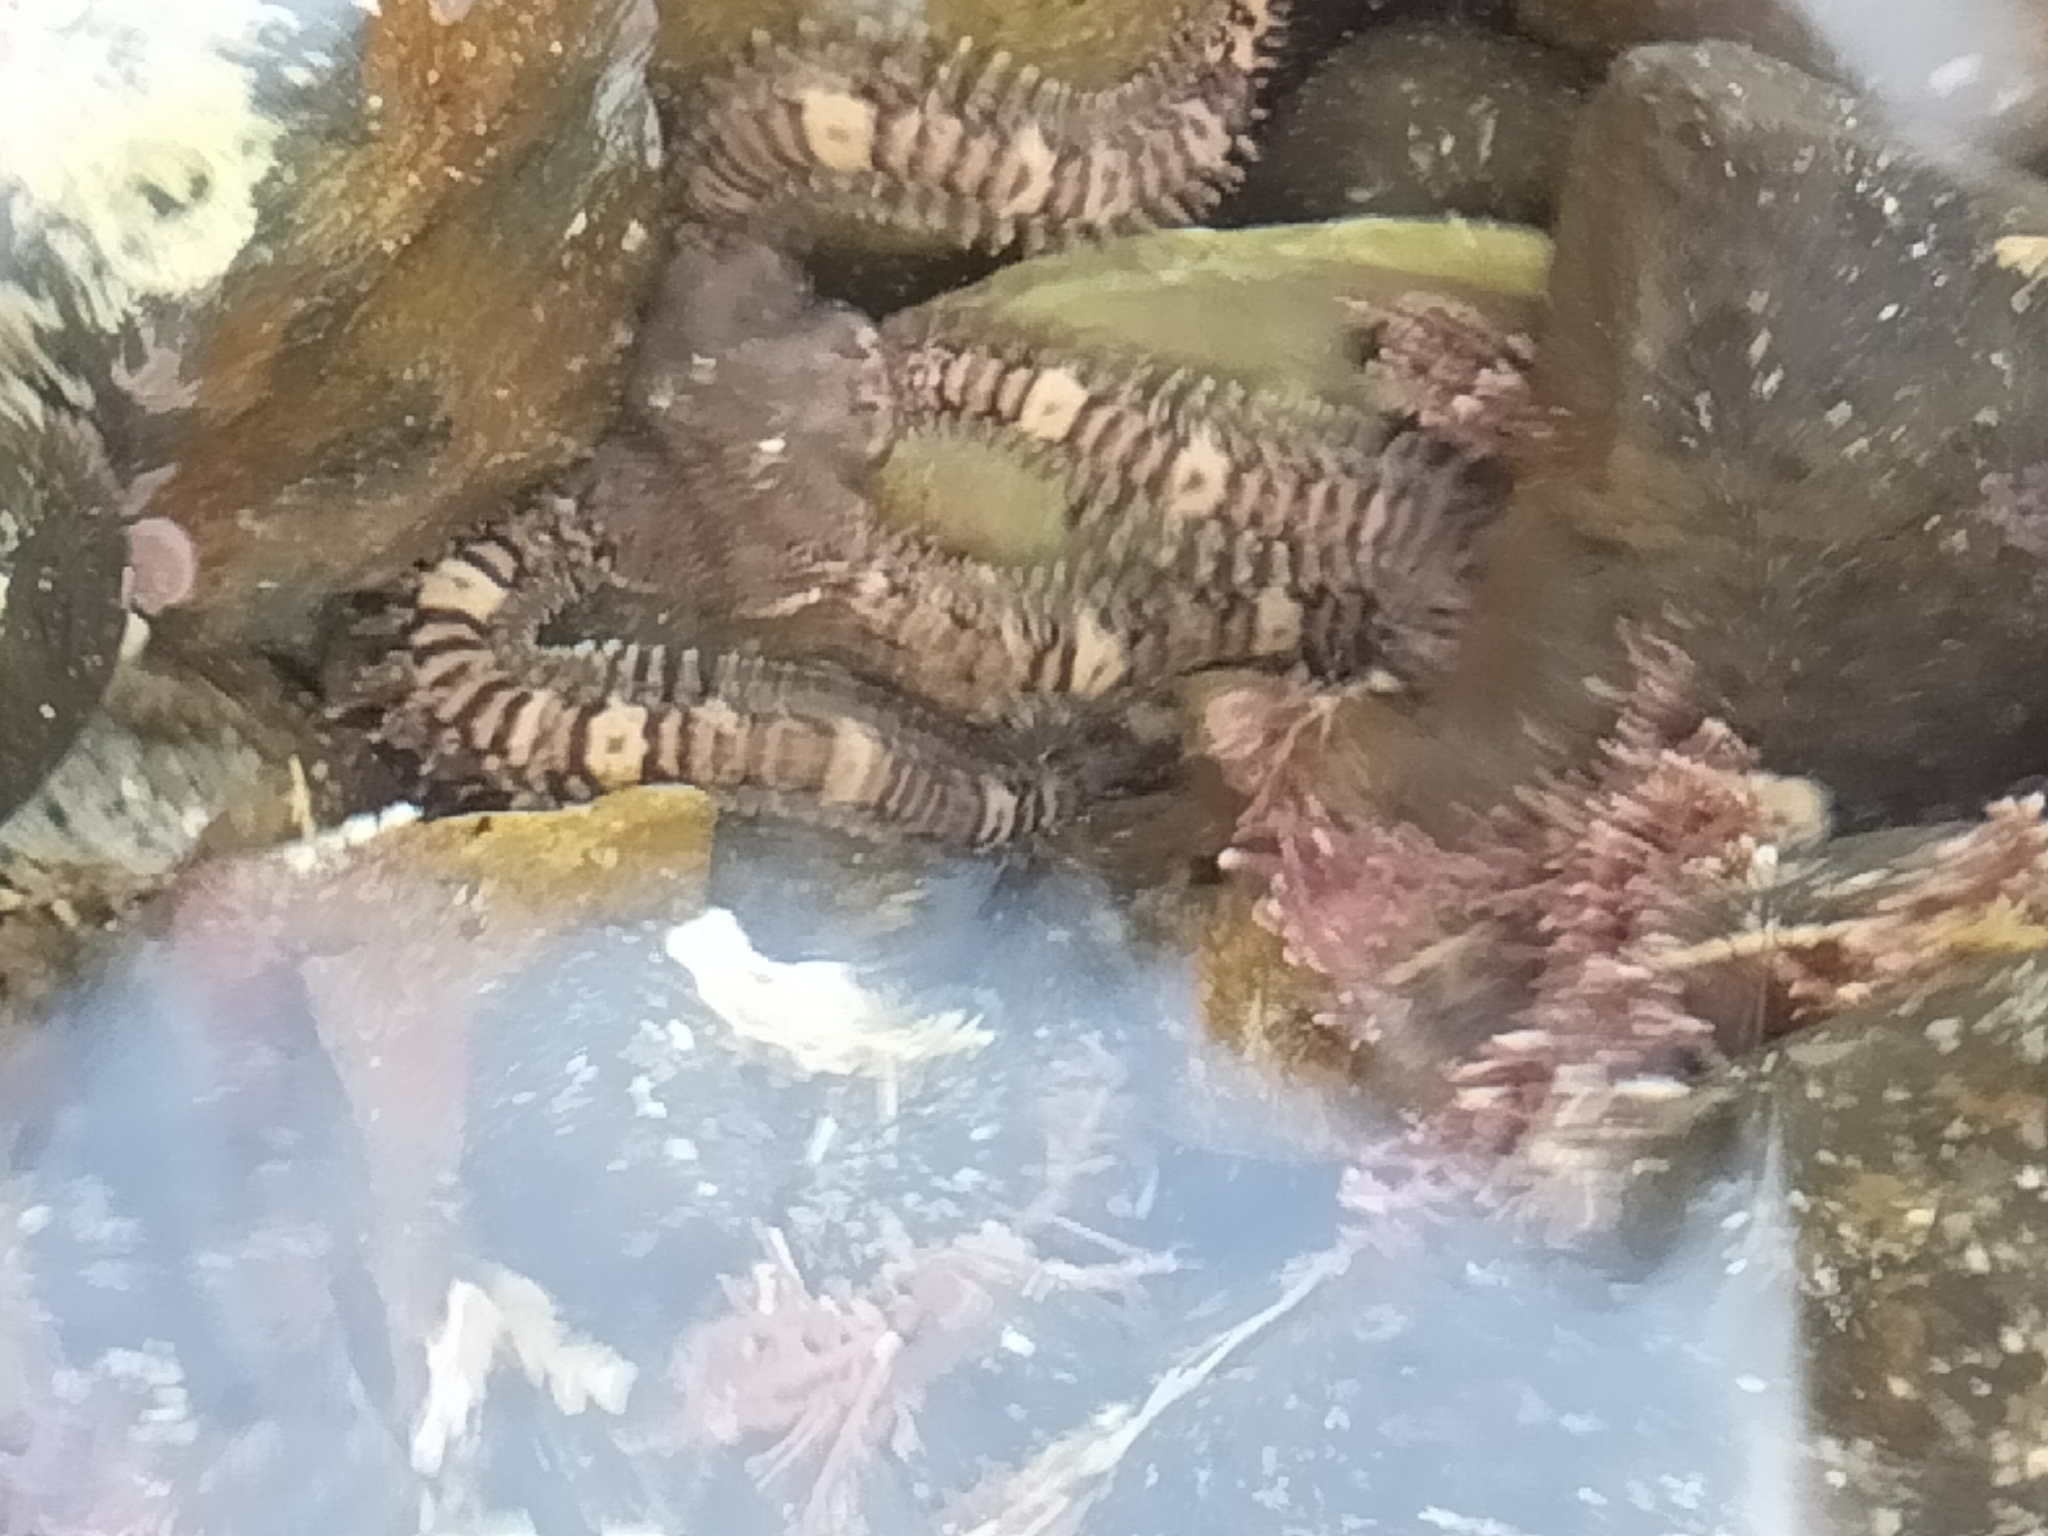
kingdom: Animalia
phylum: Echinodermata
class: Ophiuroidea
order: Amphilepidida
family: Ophionereididae
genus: Ophionereis
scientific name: Ophionereis fasciata
